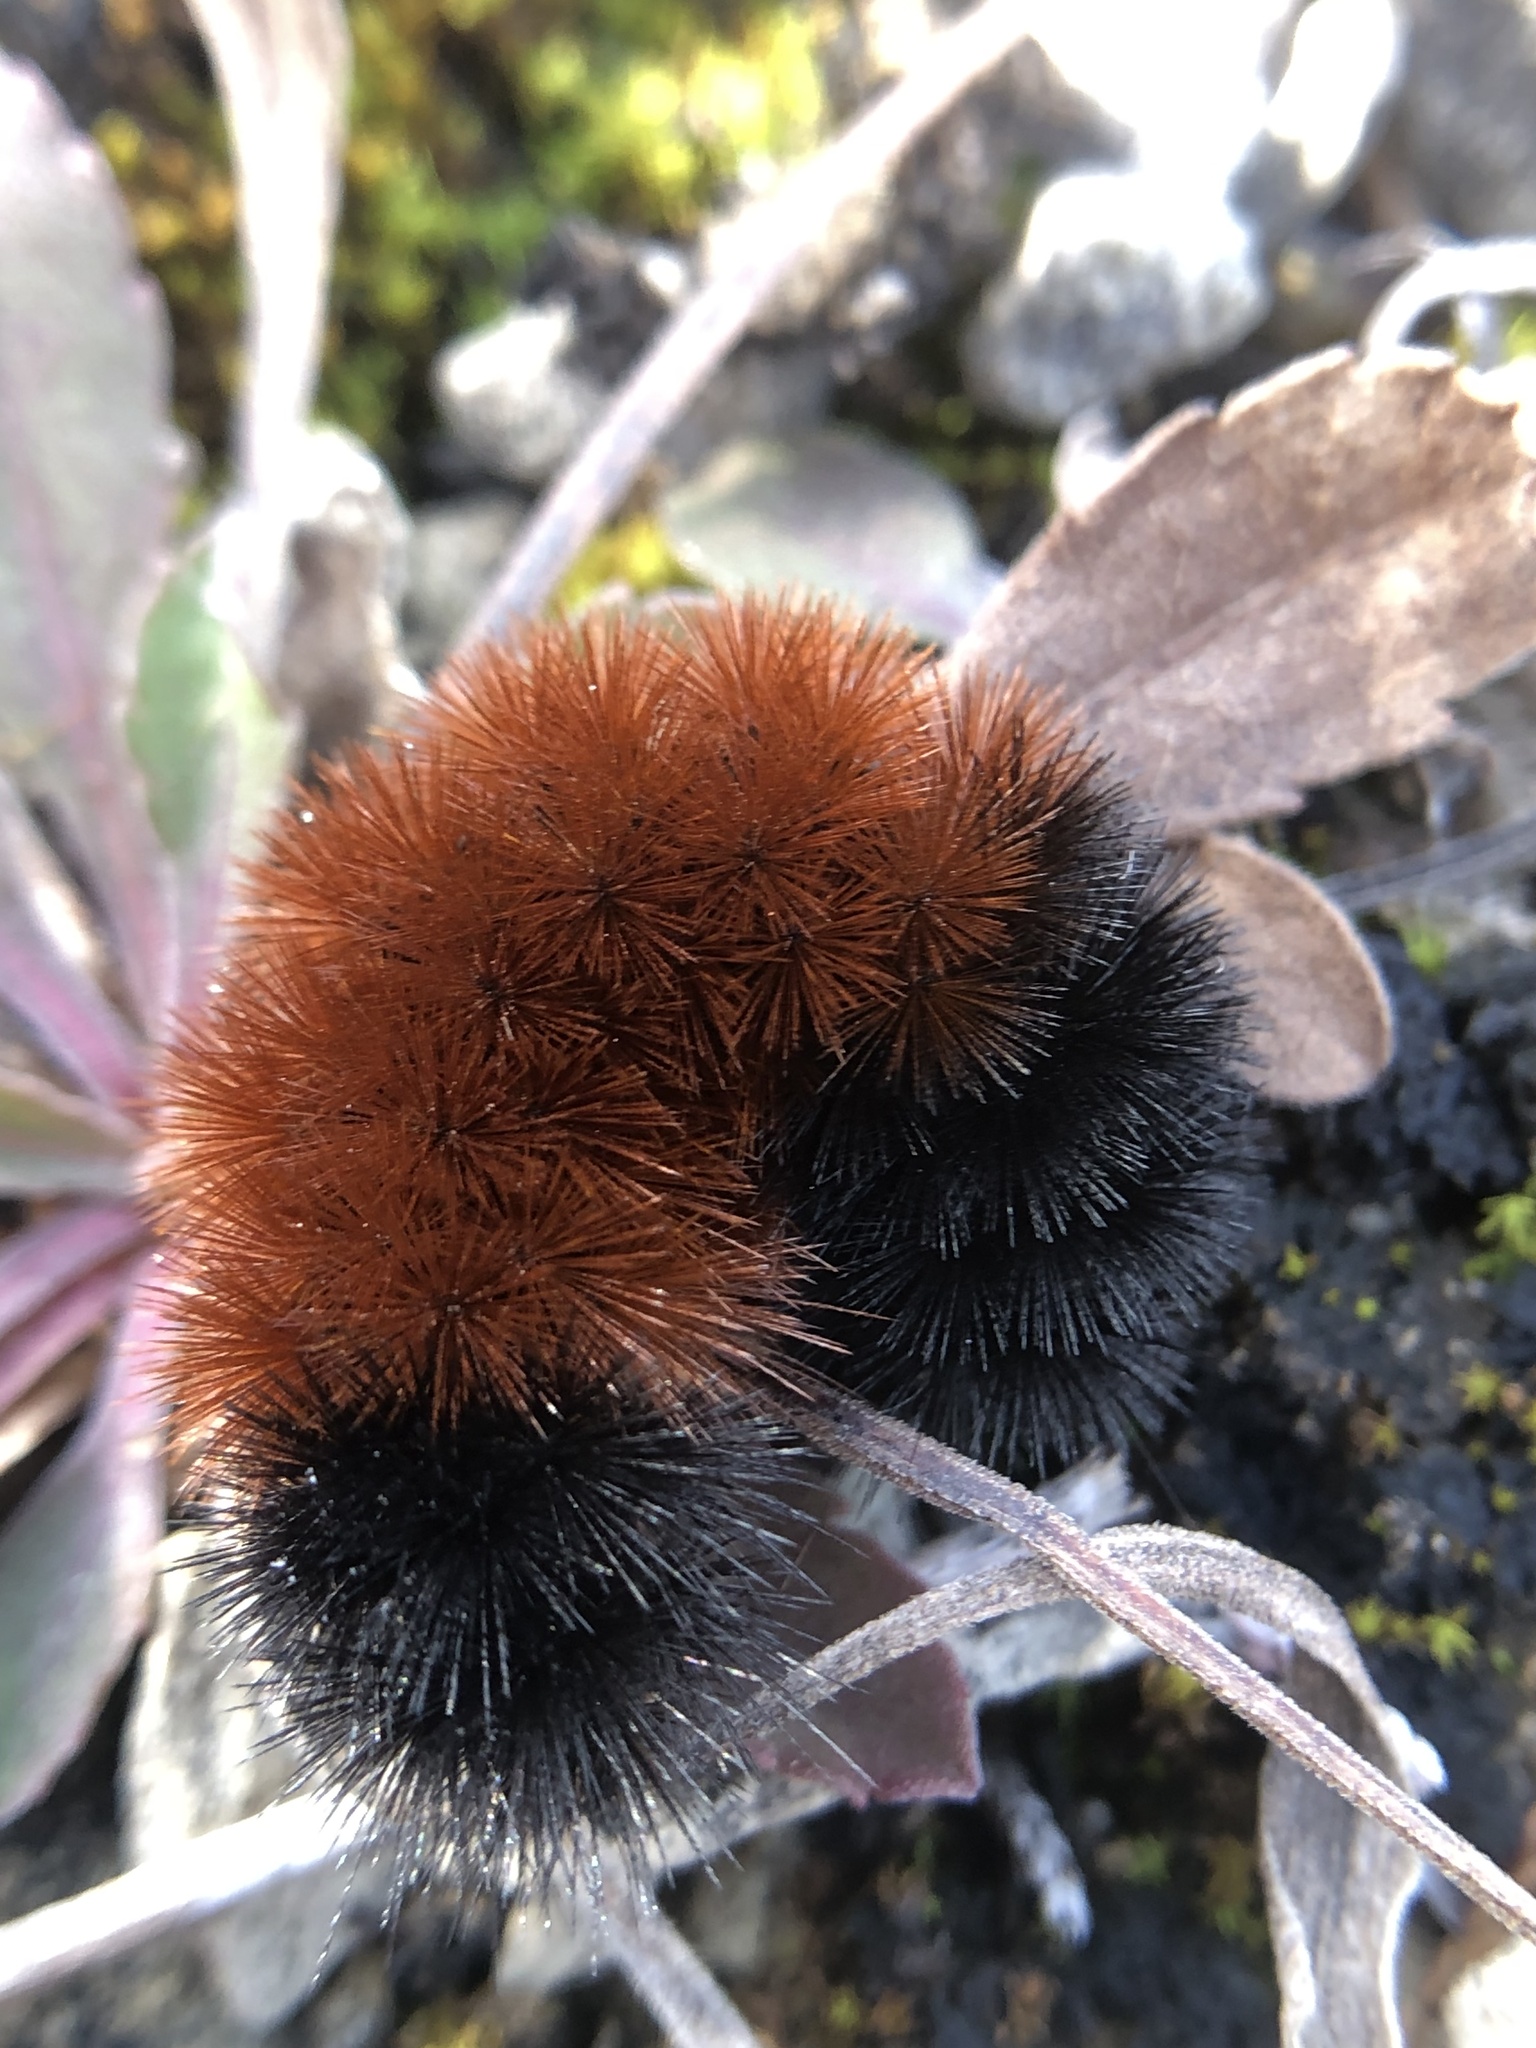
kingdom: Animalia
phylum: Arthropoda
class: Insecta
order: Lepidoptera
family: Erebidae
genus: Pyrrharctia
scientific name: Pyrrharctia isabella
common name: Isabella tiger moth
